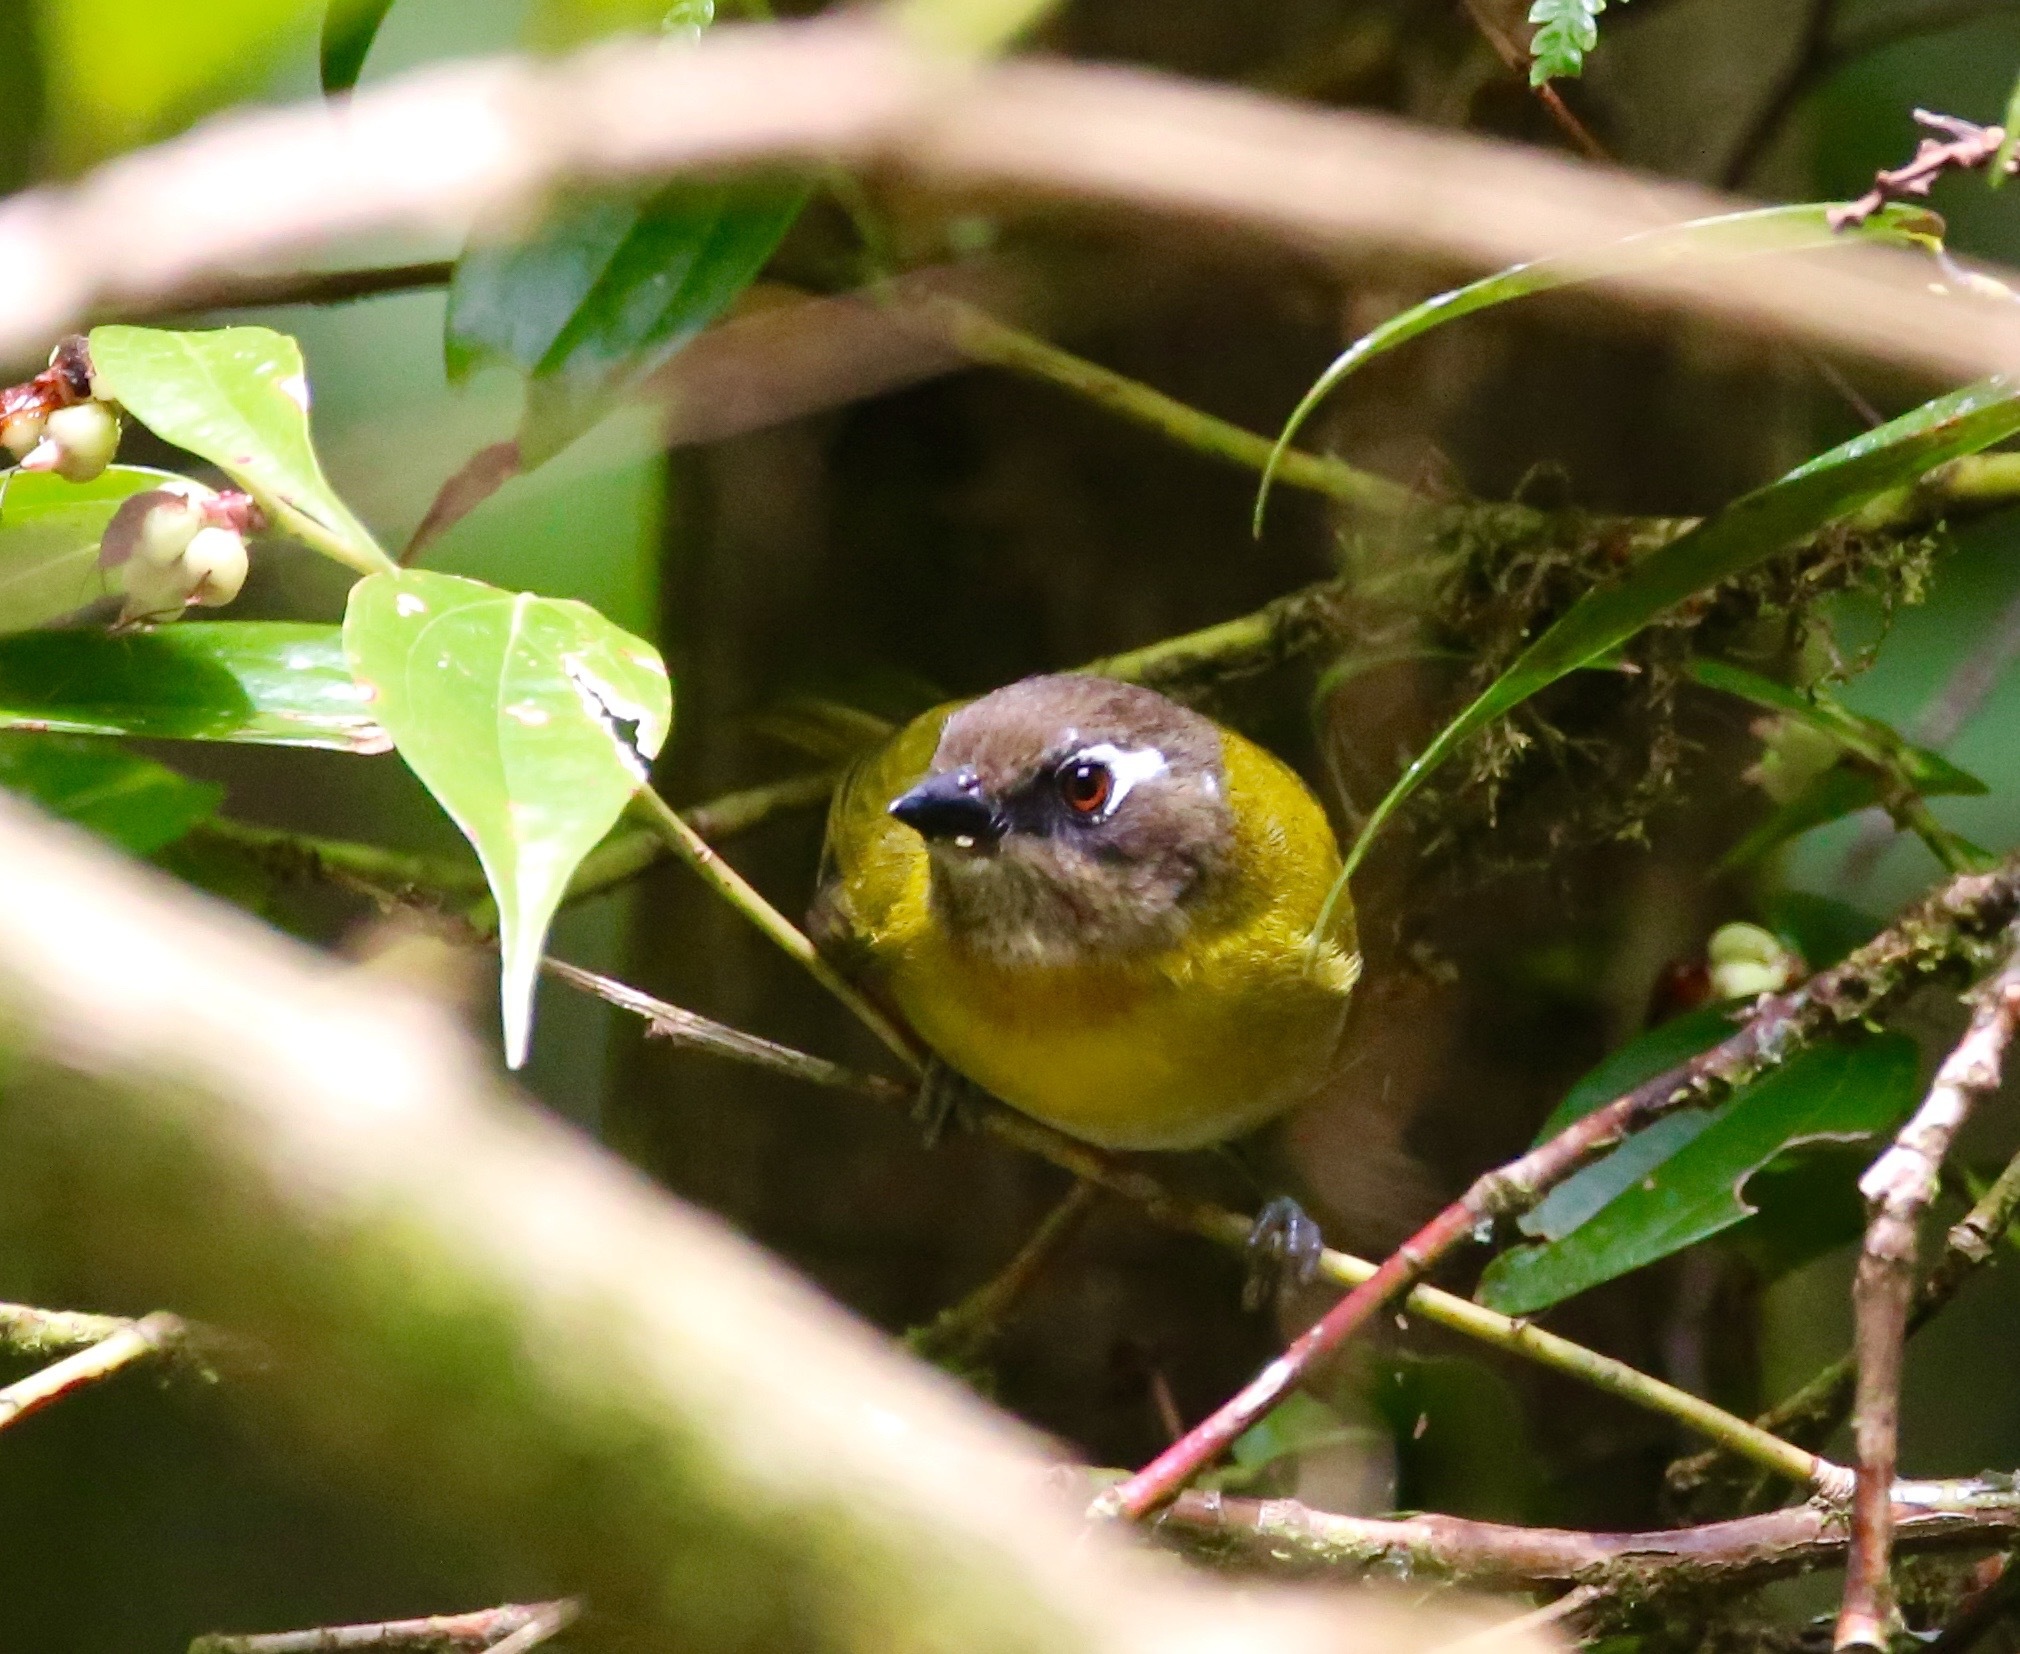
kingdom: Animalia
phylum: Chordata
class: Aves
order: Passeriformes
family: Passerellidae
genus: Chlorospingus
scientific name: Chlorospingus flavopectus
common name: Common chlorospingus
